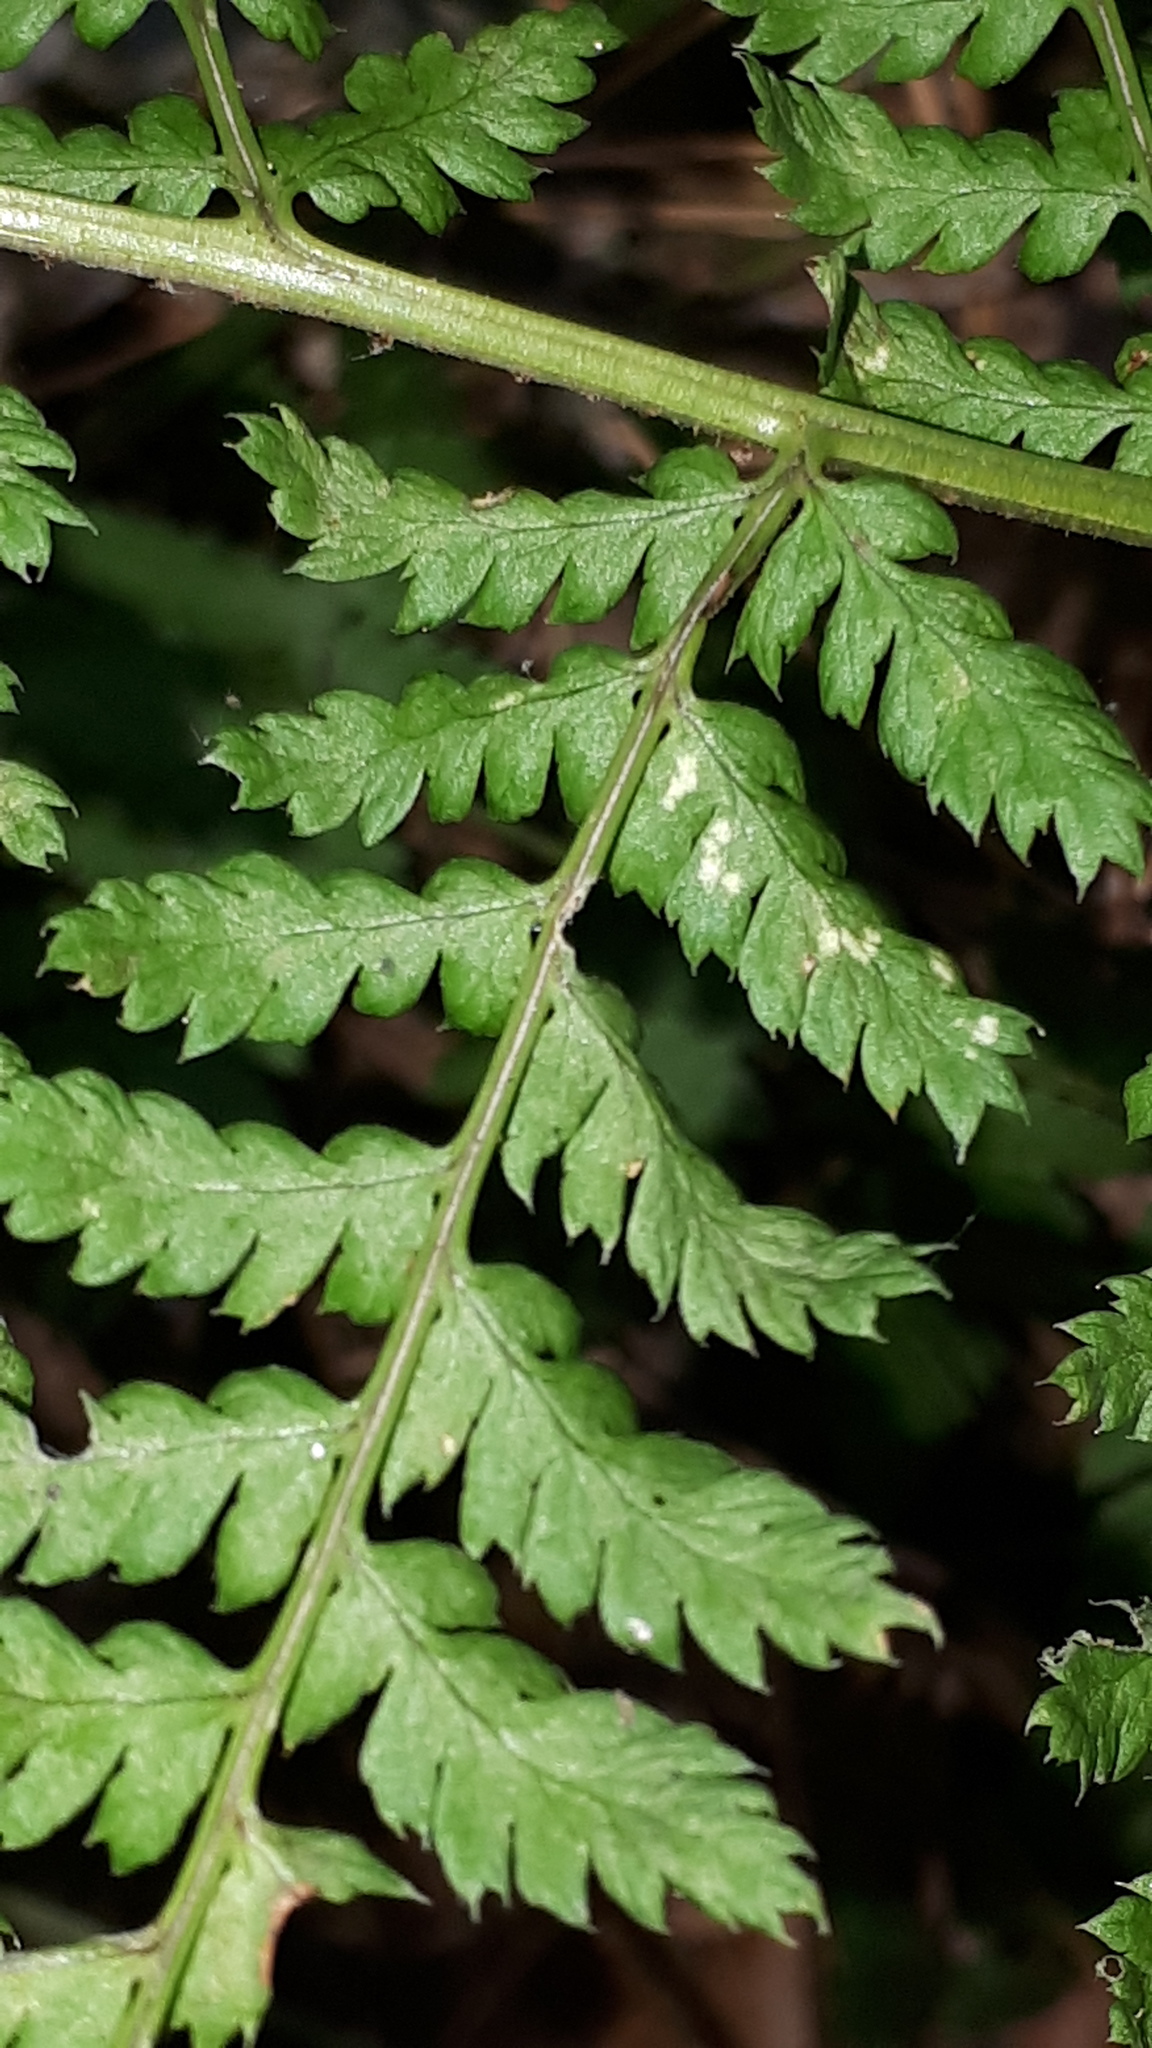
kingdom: Plantae
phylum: Tracheophyta
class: Polypodiopsida
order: Polypodiales
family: Dryopteridaceae
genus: Dryopteris
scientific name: Dryopteris carthusiana
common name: Narrow buckler-fern
